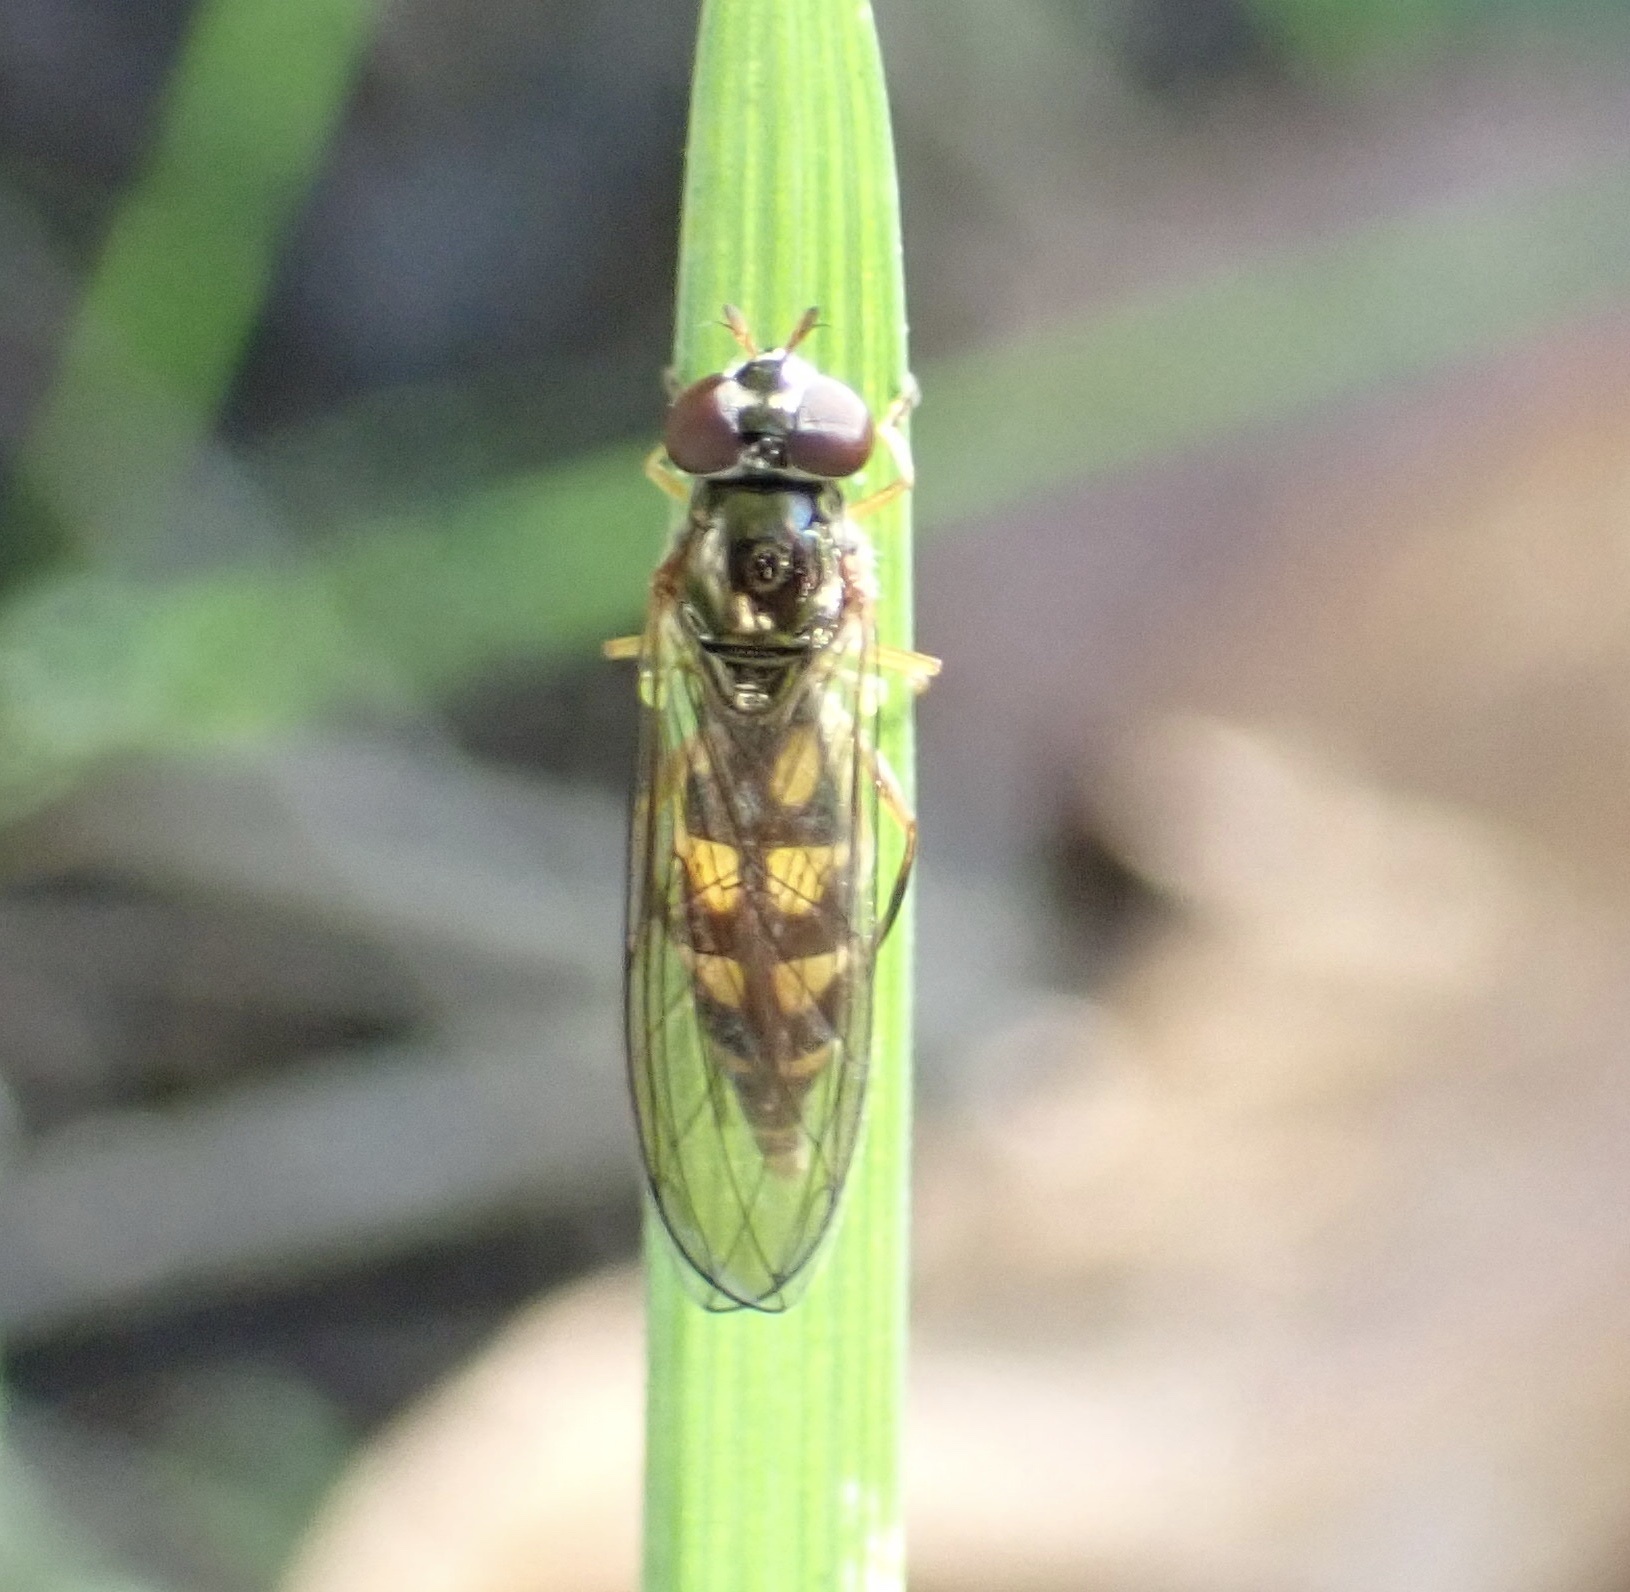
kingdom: Animalia
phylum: Arthropoda
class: Insecta
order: Diptera
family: Syrphidae
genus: Melanostoma
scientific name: Melanostoma mellina
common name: Hover fly
